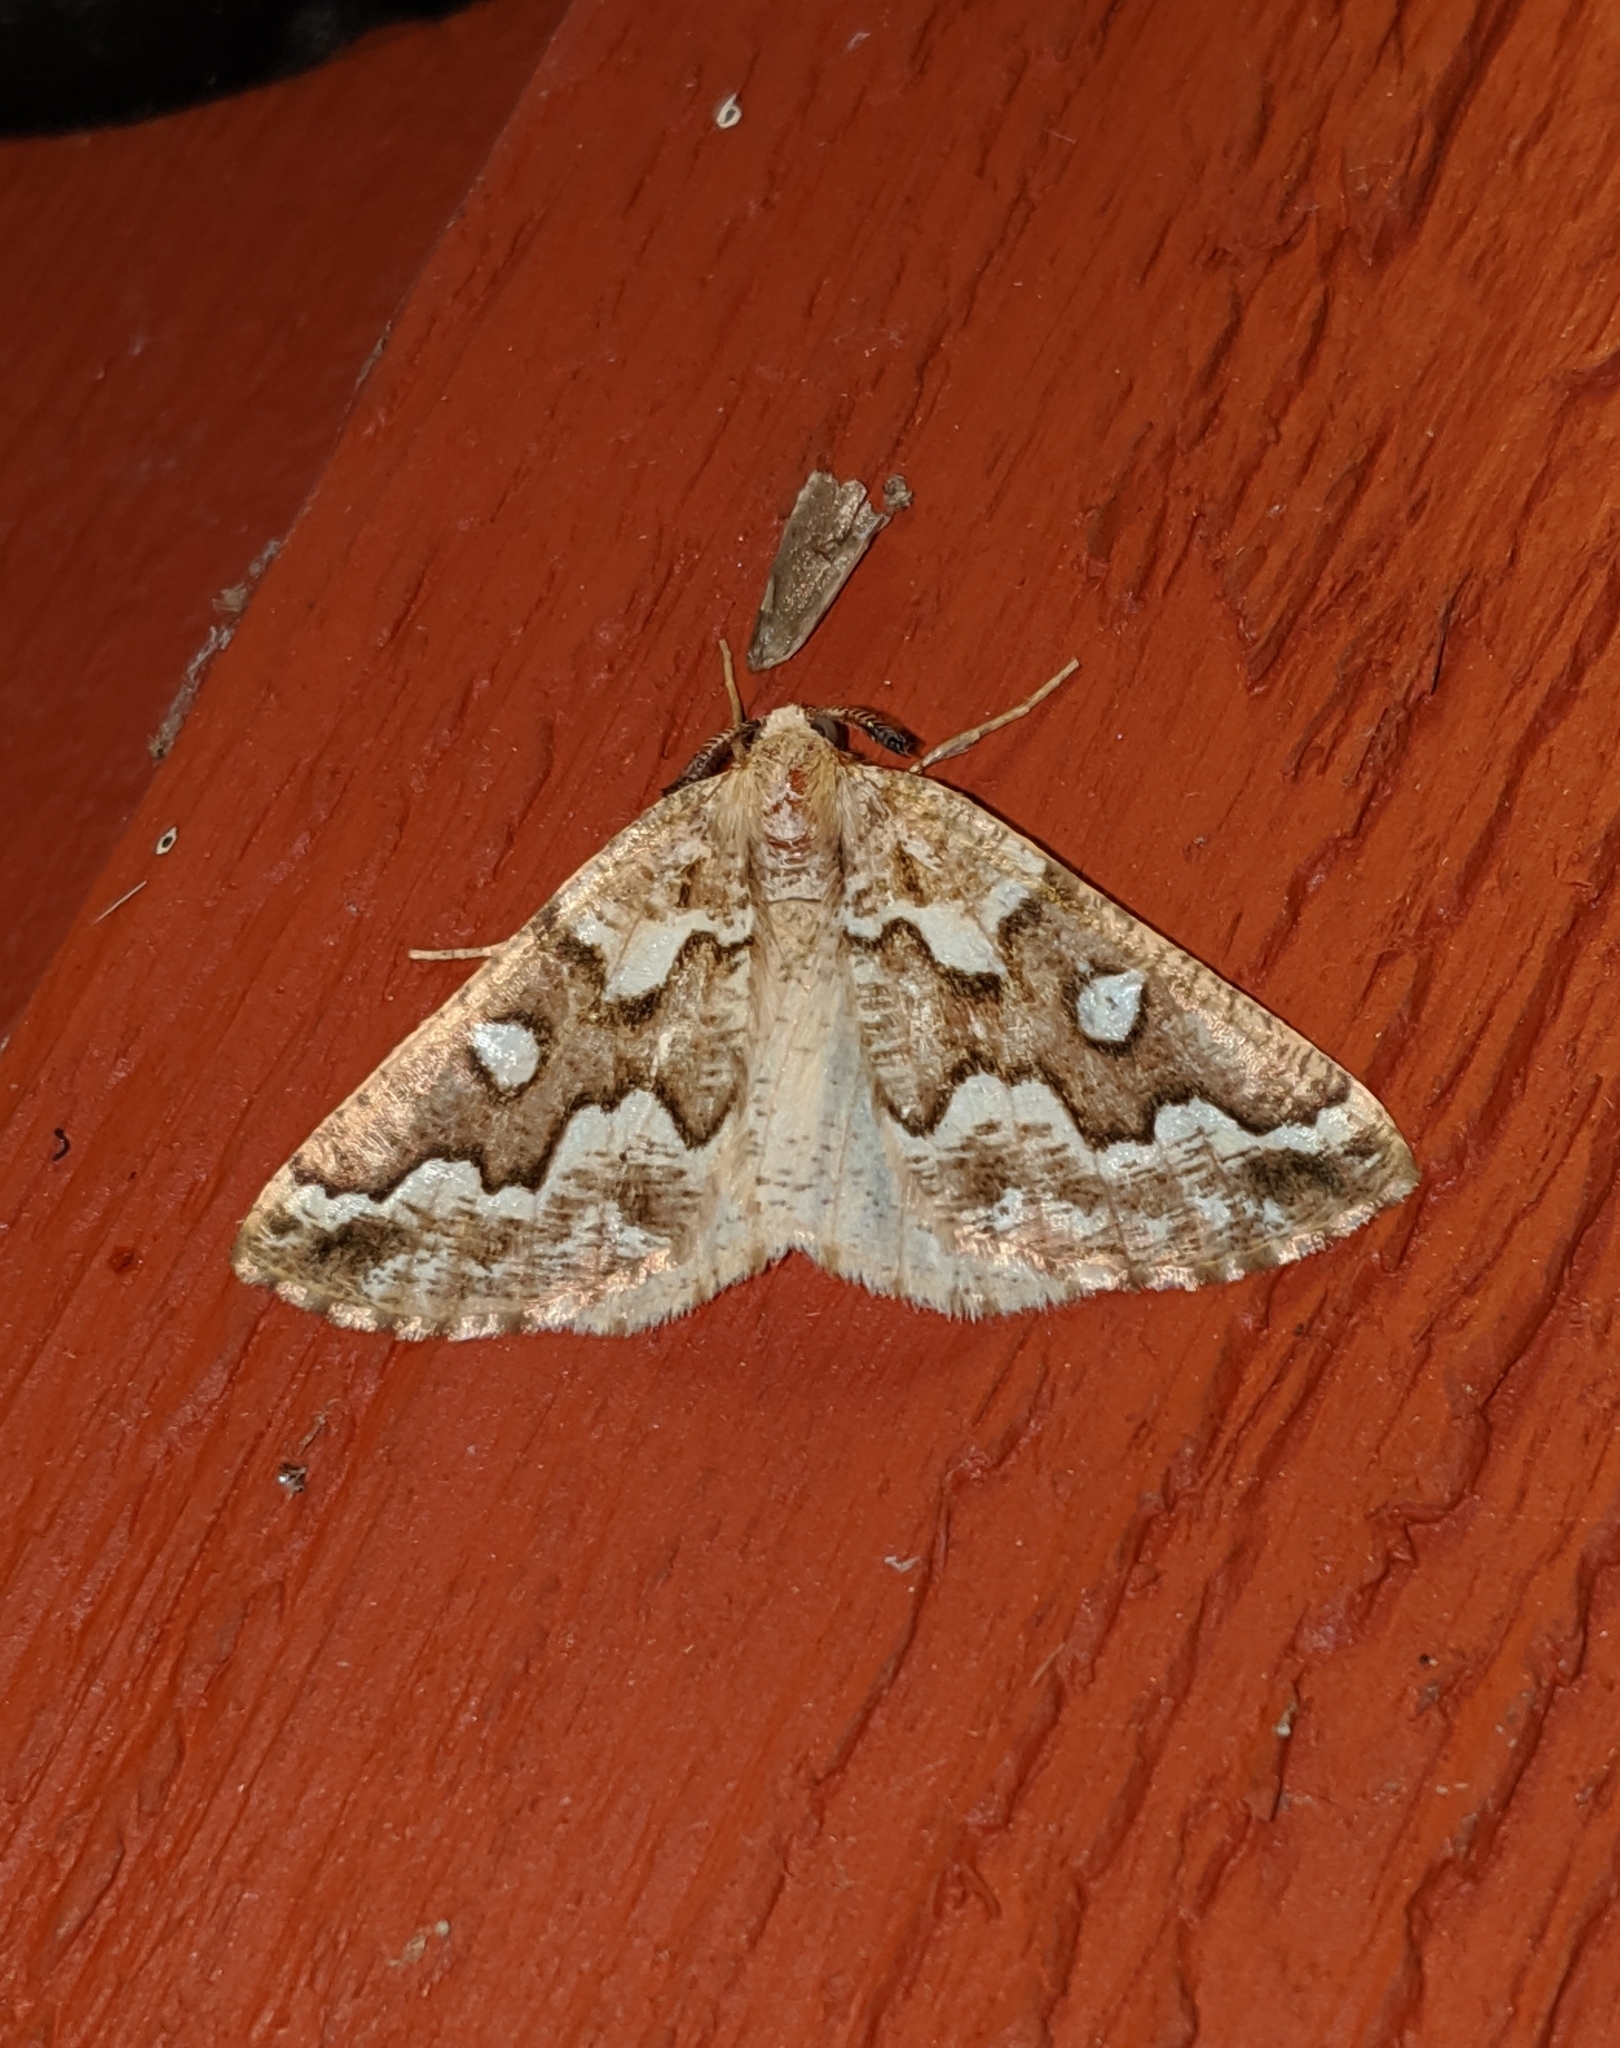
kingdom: Animalia
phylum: Arthropoda
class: Insecta
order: Lepidoptera
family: Geometridae
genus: Caripeta
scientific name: Caripeta divisata
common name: Gray spruce looper
